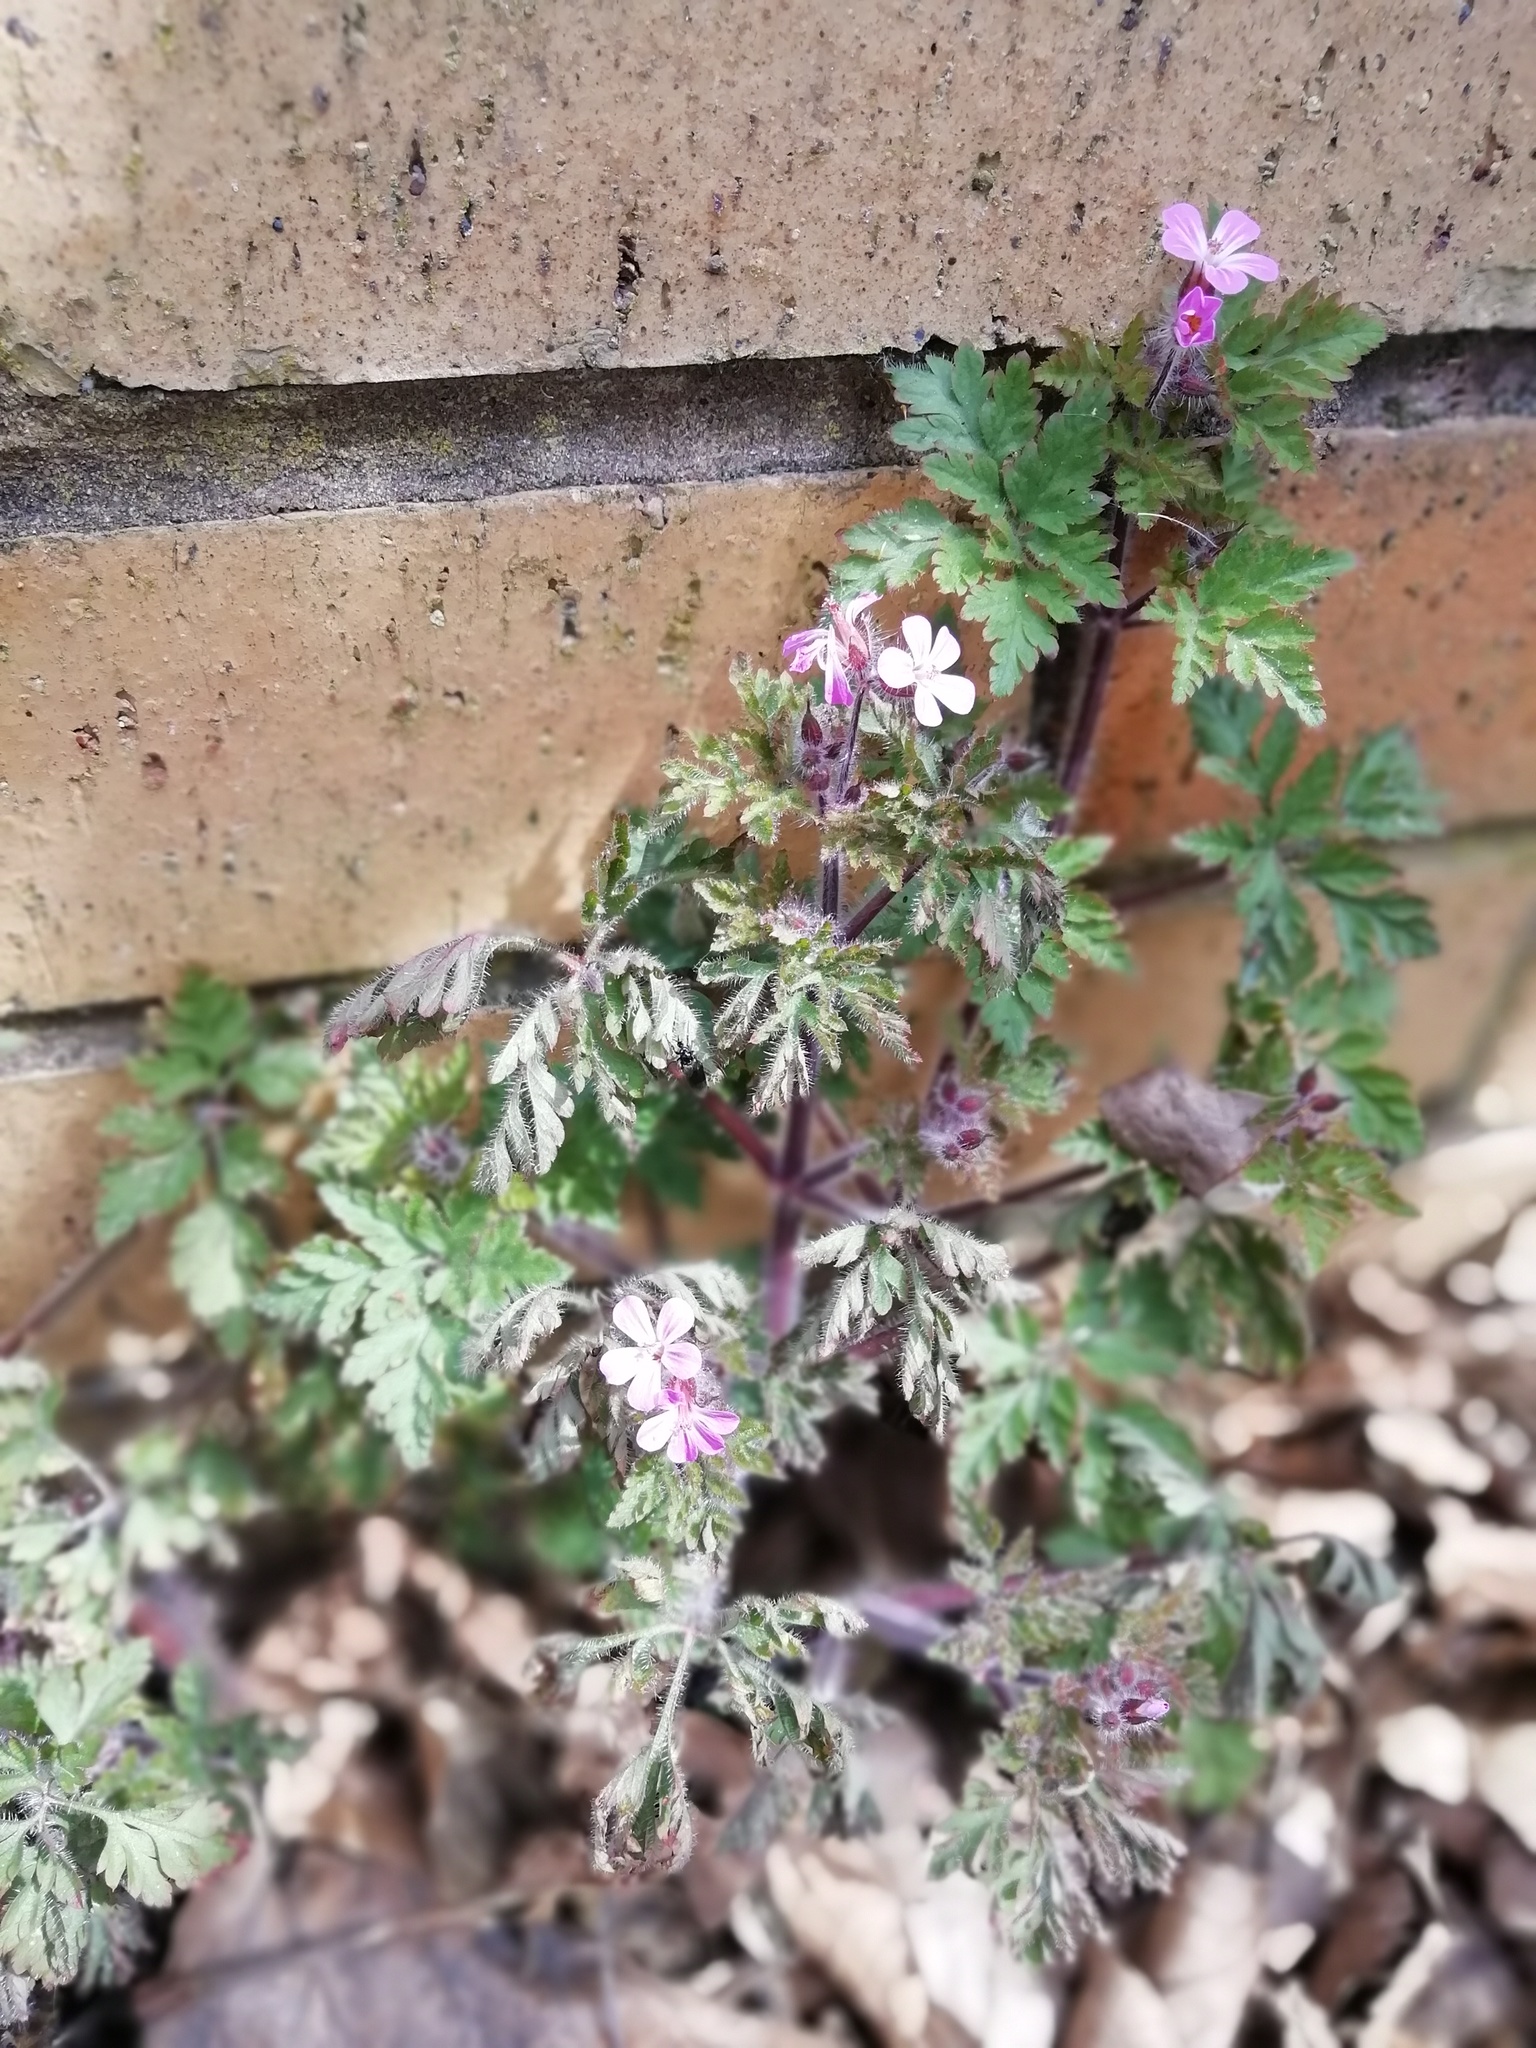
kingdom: Plantae
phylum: Tracheophyta
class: Magnoliopsida
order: Geraniales
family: Geraniaceae
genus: Geranium
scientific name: Geranium robertianum
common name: Herb-robert
